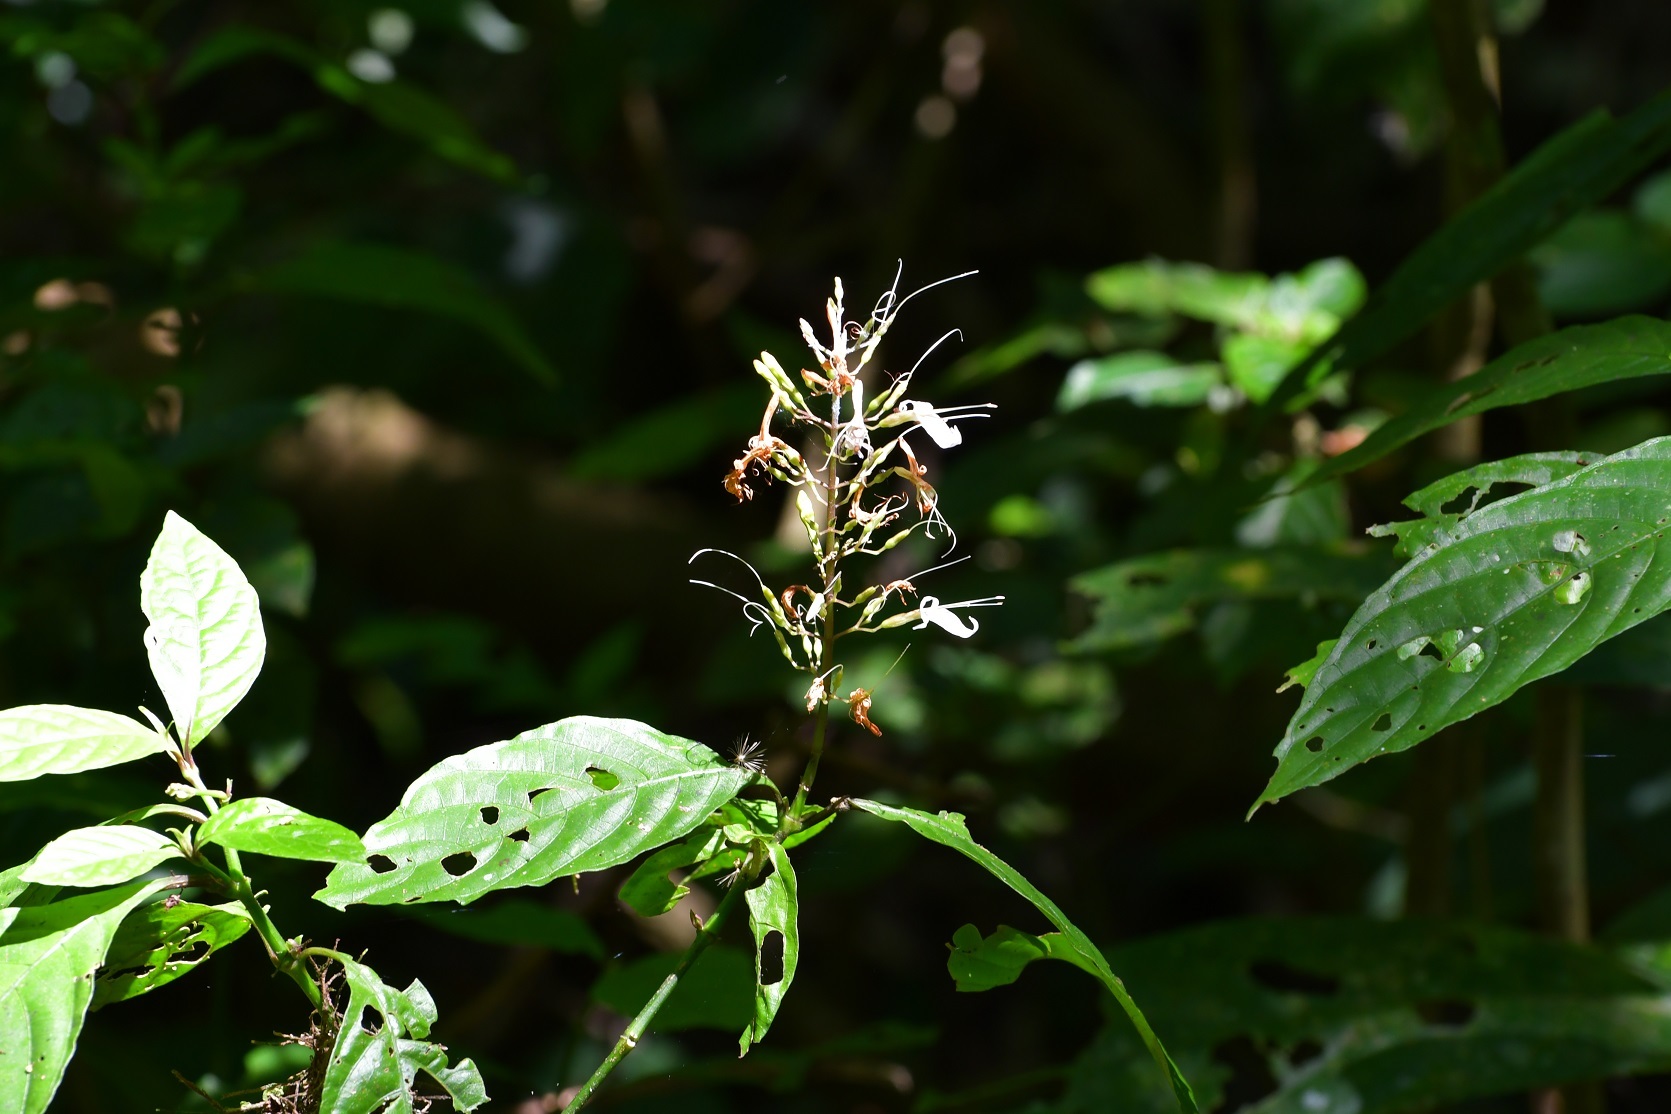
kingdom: Plantae
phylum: Tracheophyta
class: Magnoliopsida
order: Lamiales
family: Acanthaceae
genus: Stenostephanus
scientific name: Stenostephanus silvaticus
